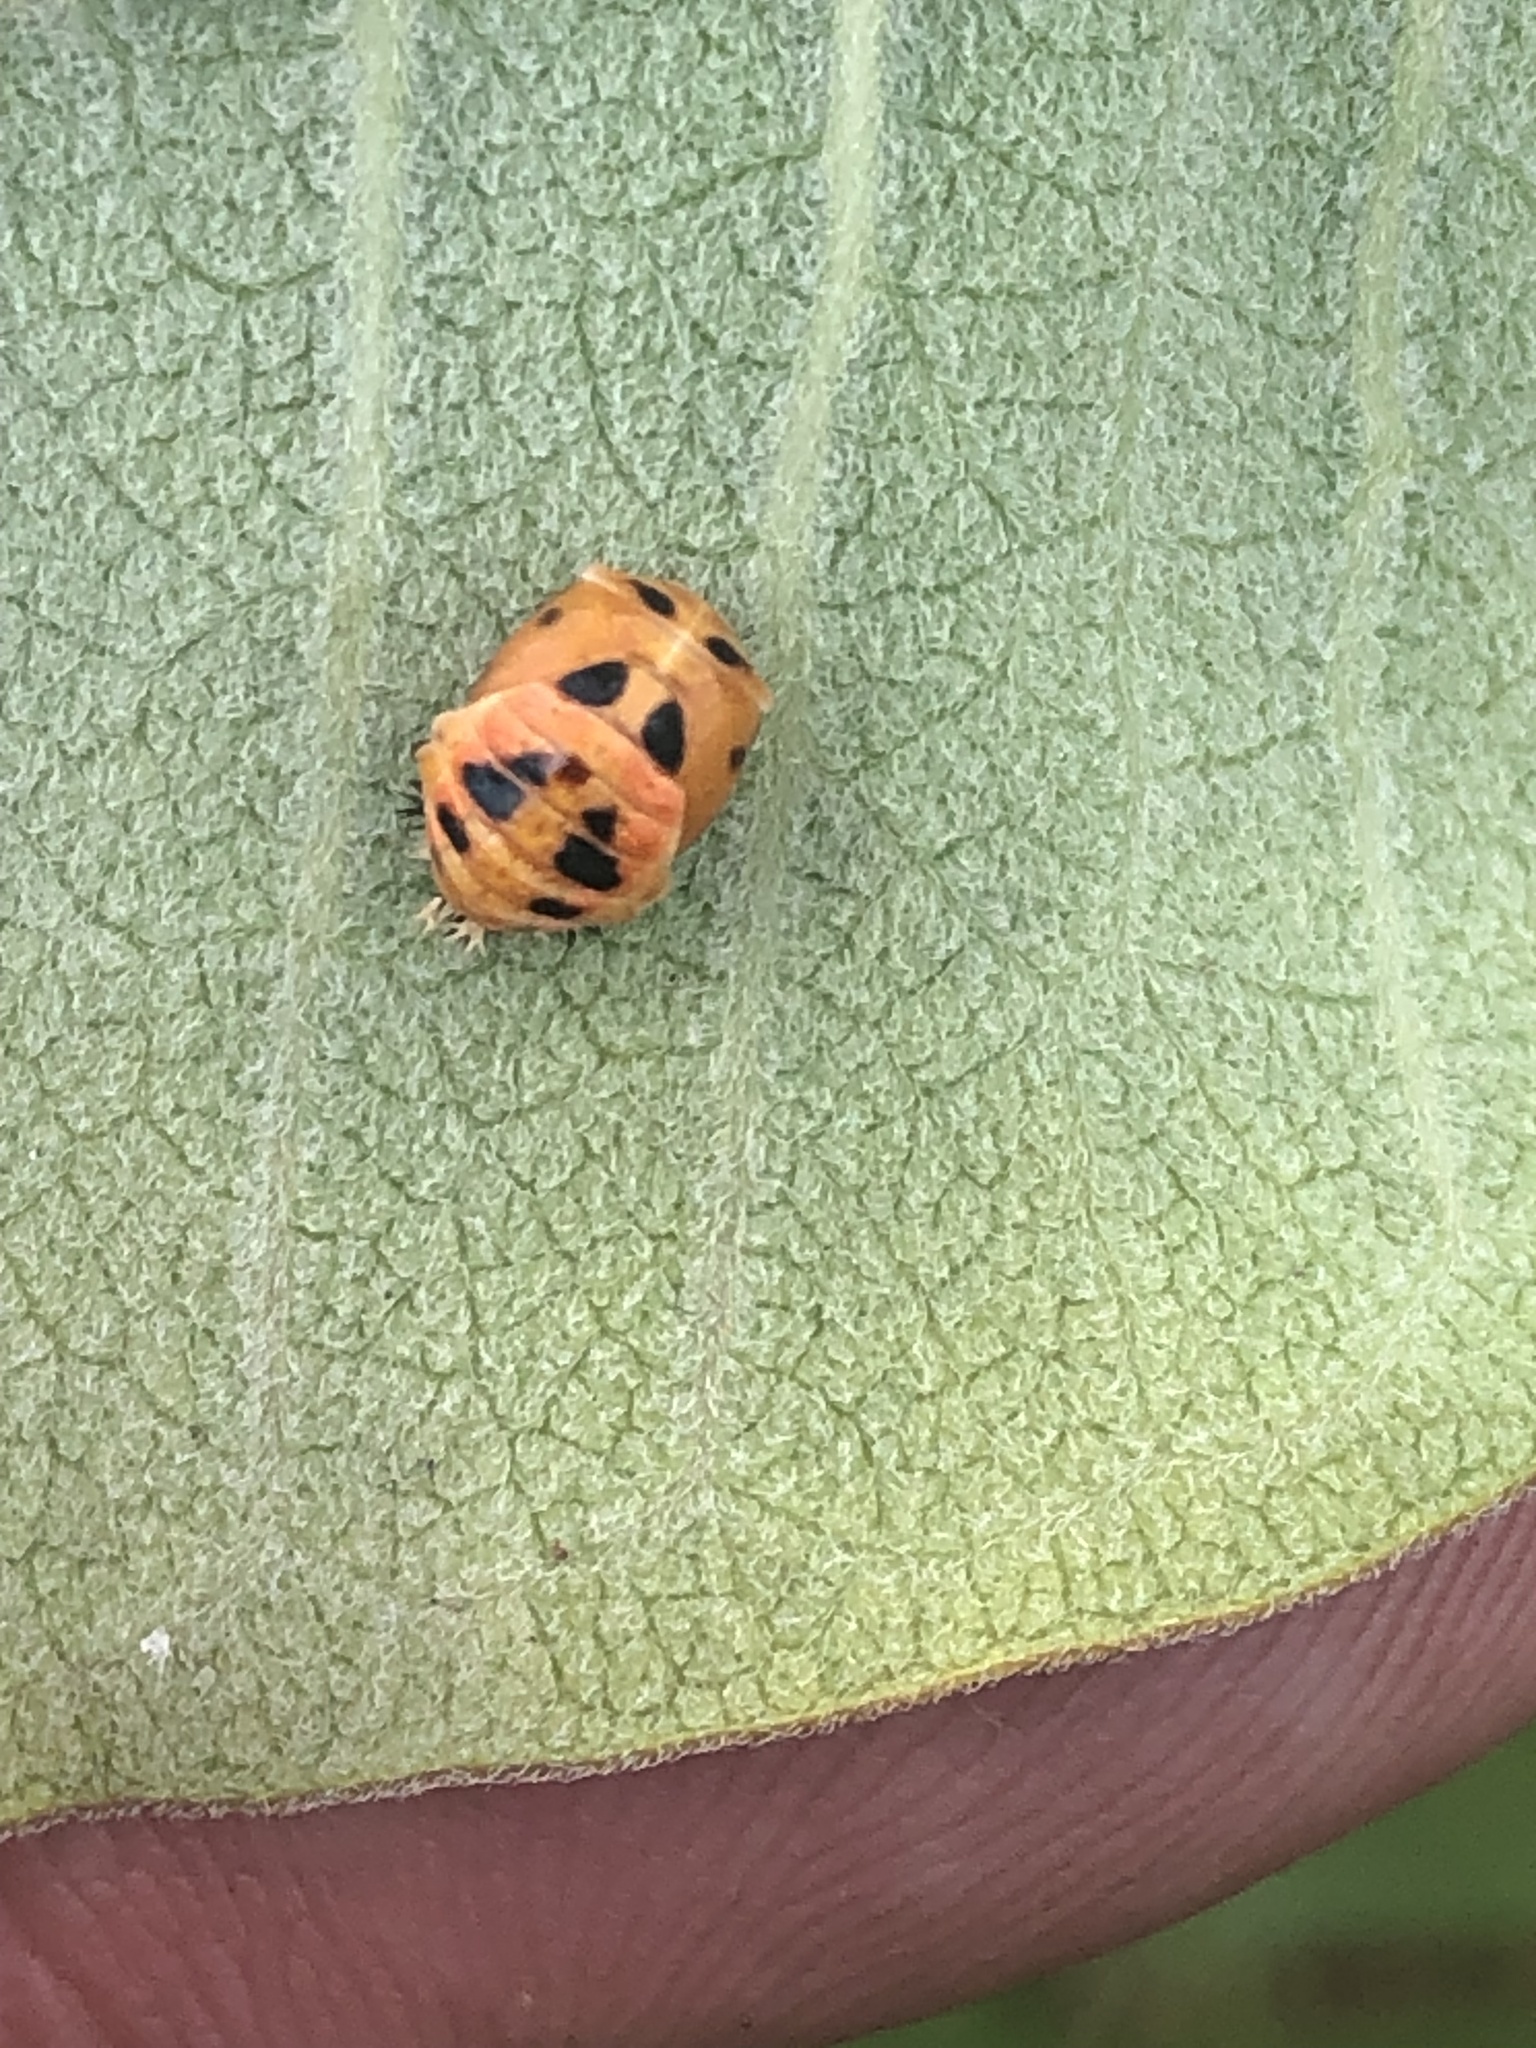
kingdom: Animalia
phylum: Arthropoda
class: Insecta
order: Coleoptera
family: Coccinellidae
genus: Harmonia
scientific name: Harmonia axyridis
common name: Harlequin ladybird
